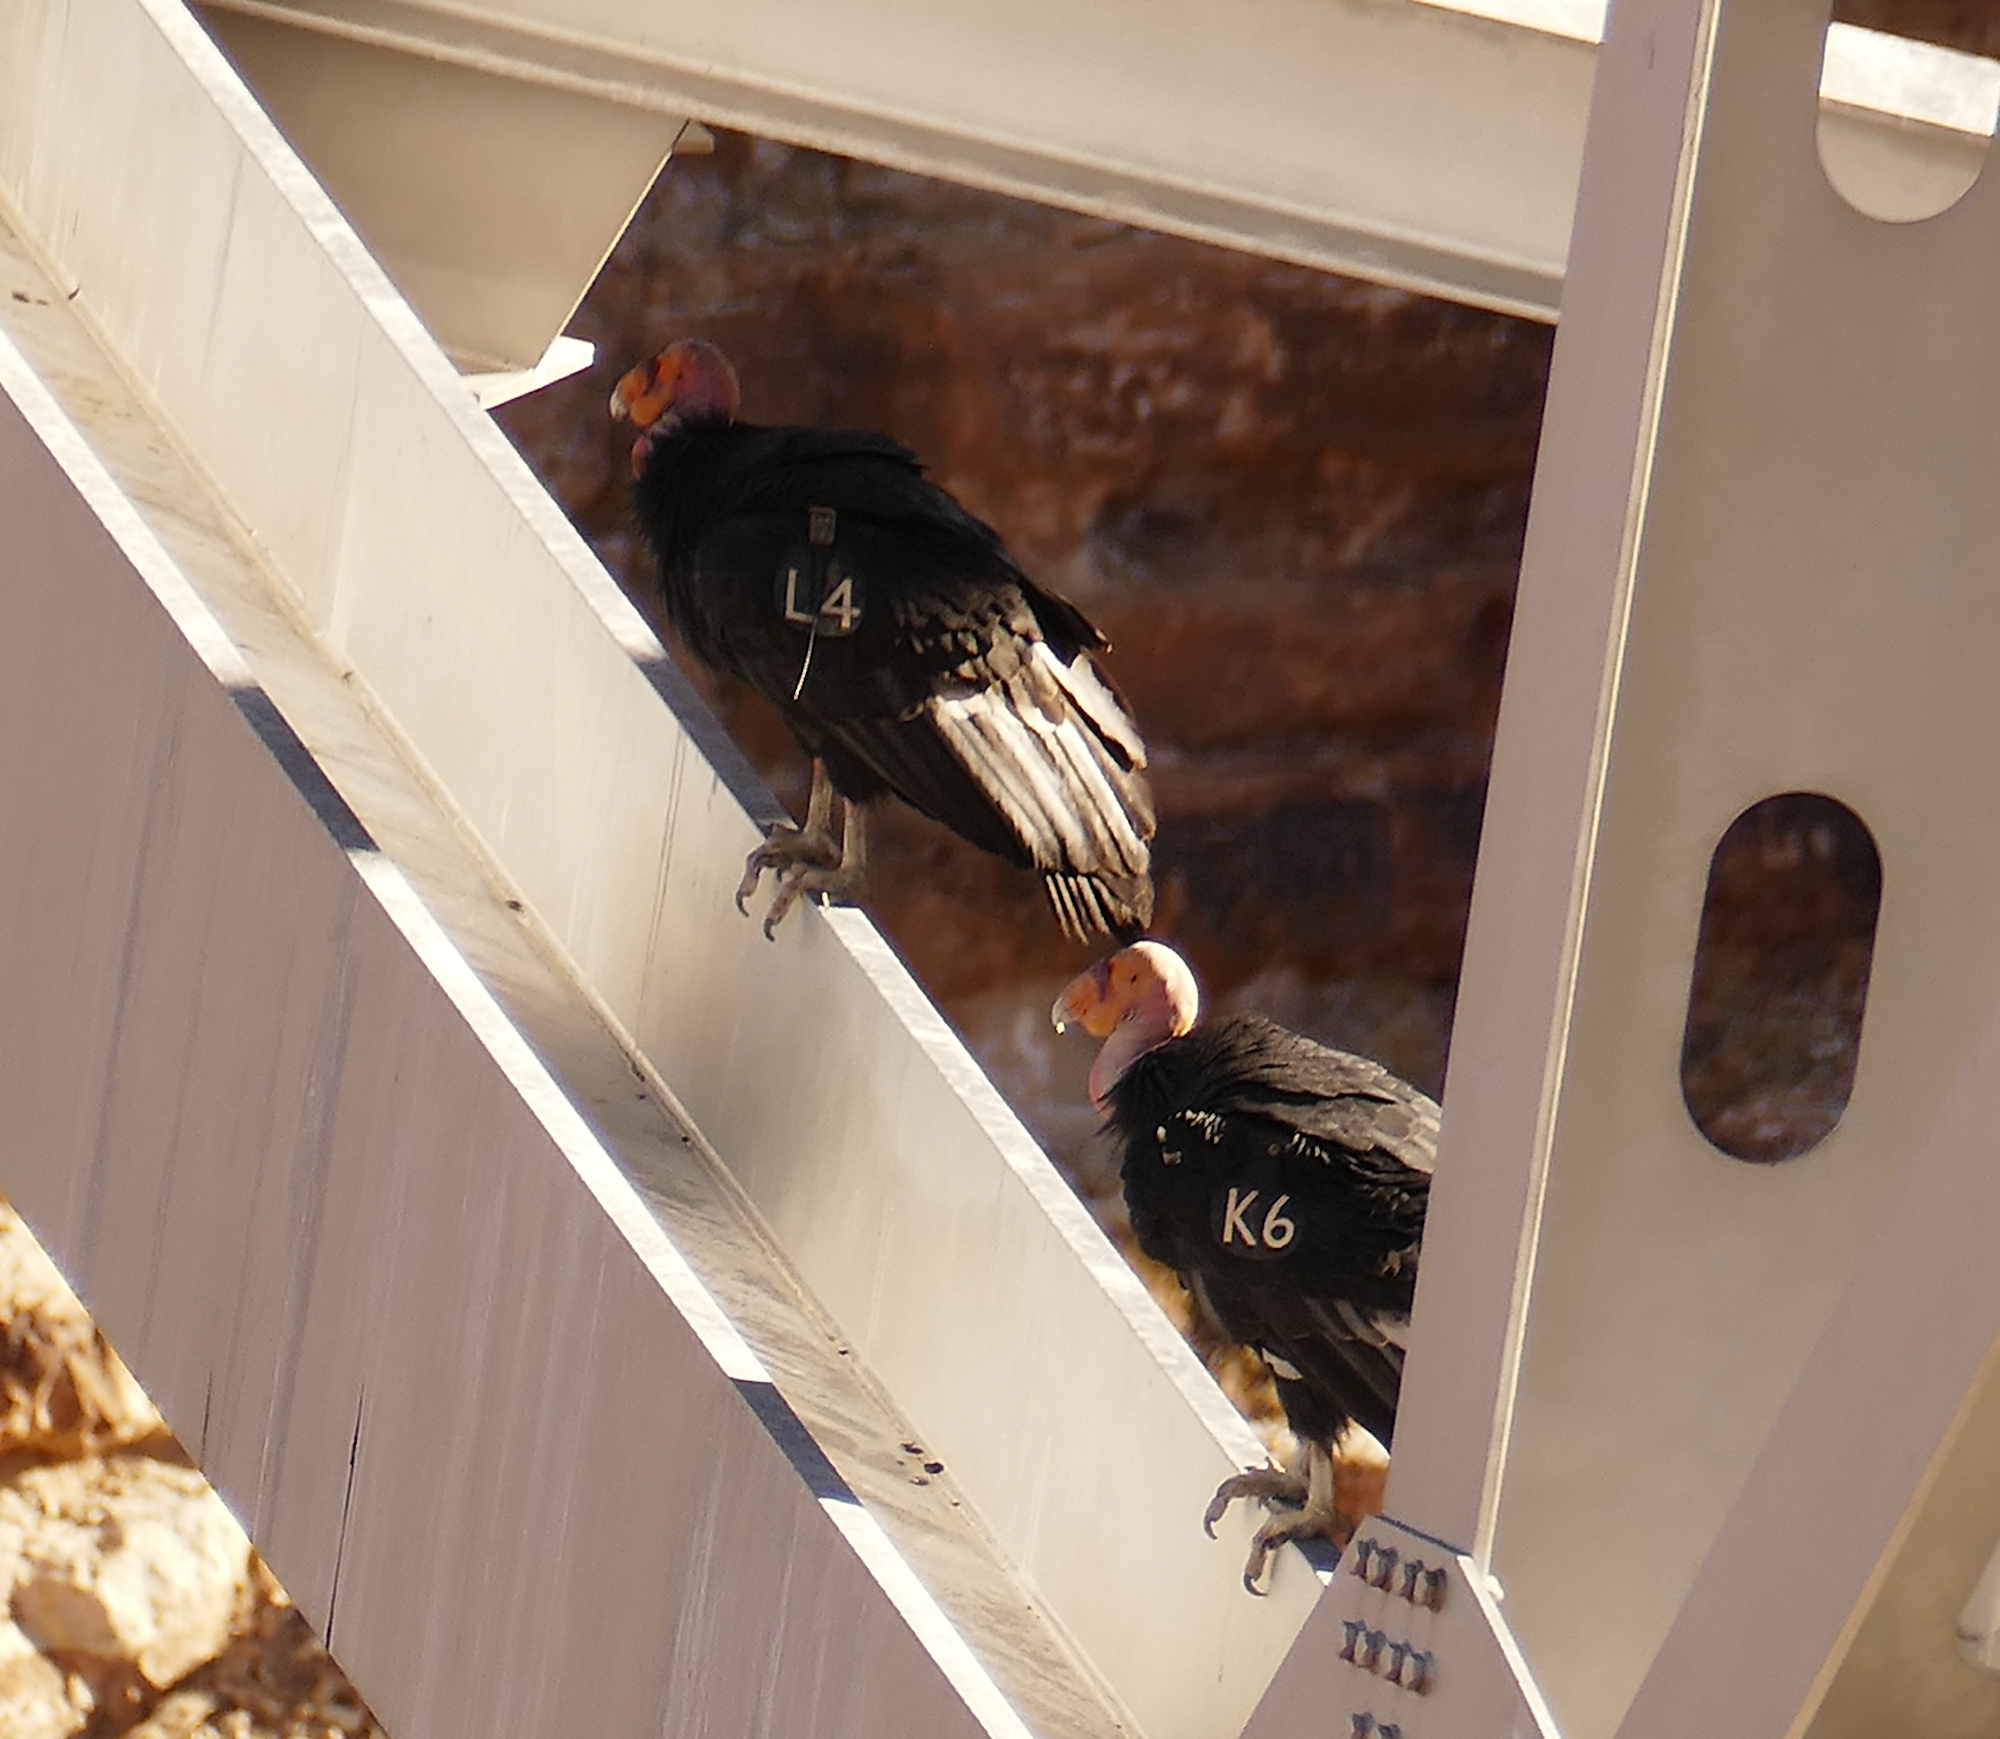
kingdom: Animalia
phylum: Chordata
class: Aves
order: Accipitriformes
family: Cathartidae
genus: Gymnogyps
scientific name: Gymnogyps californianus
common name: California condor
